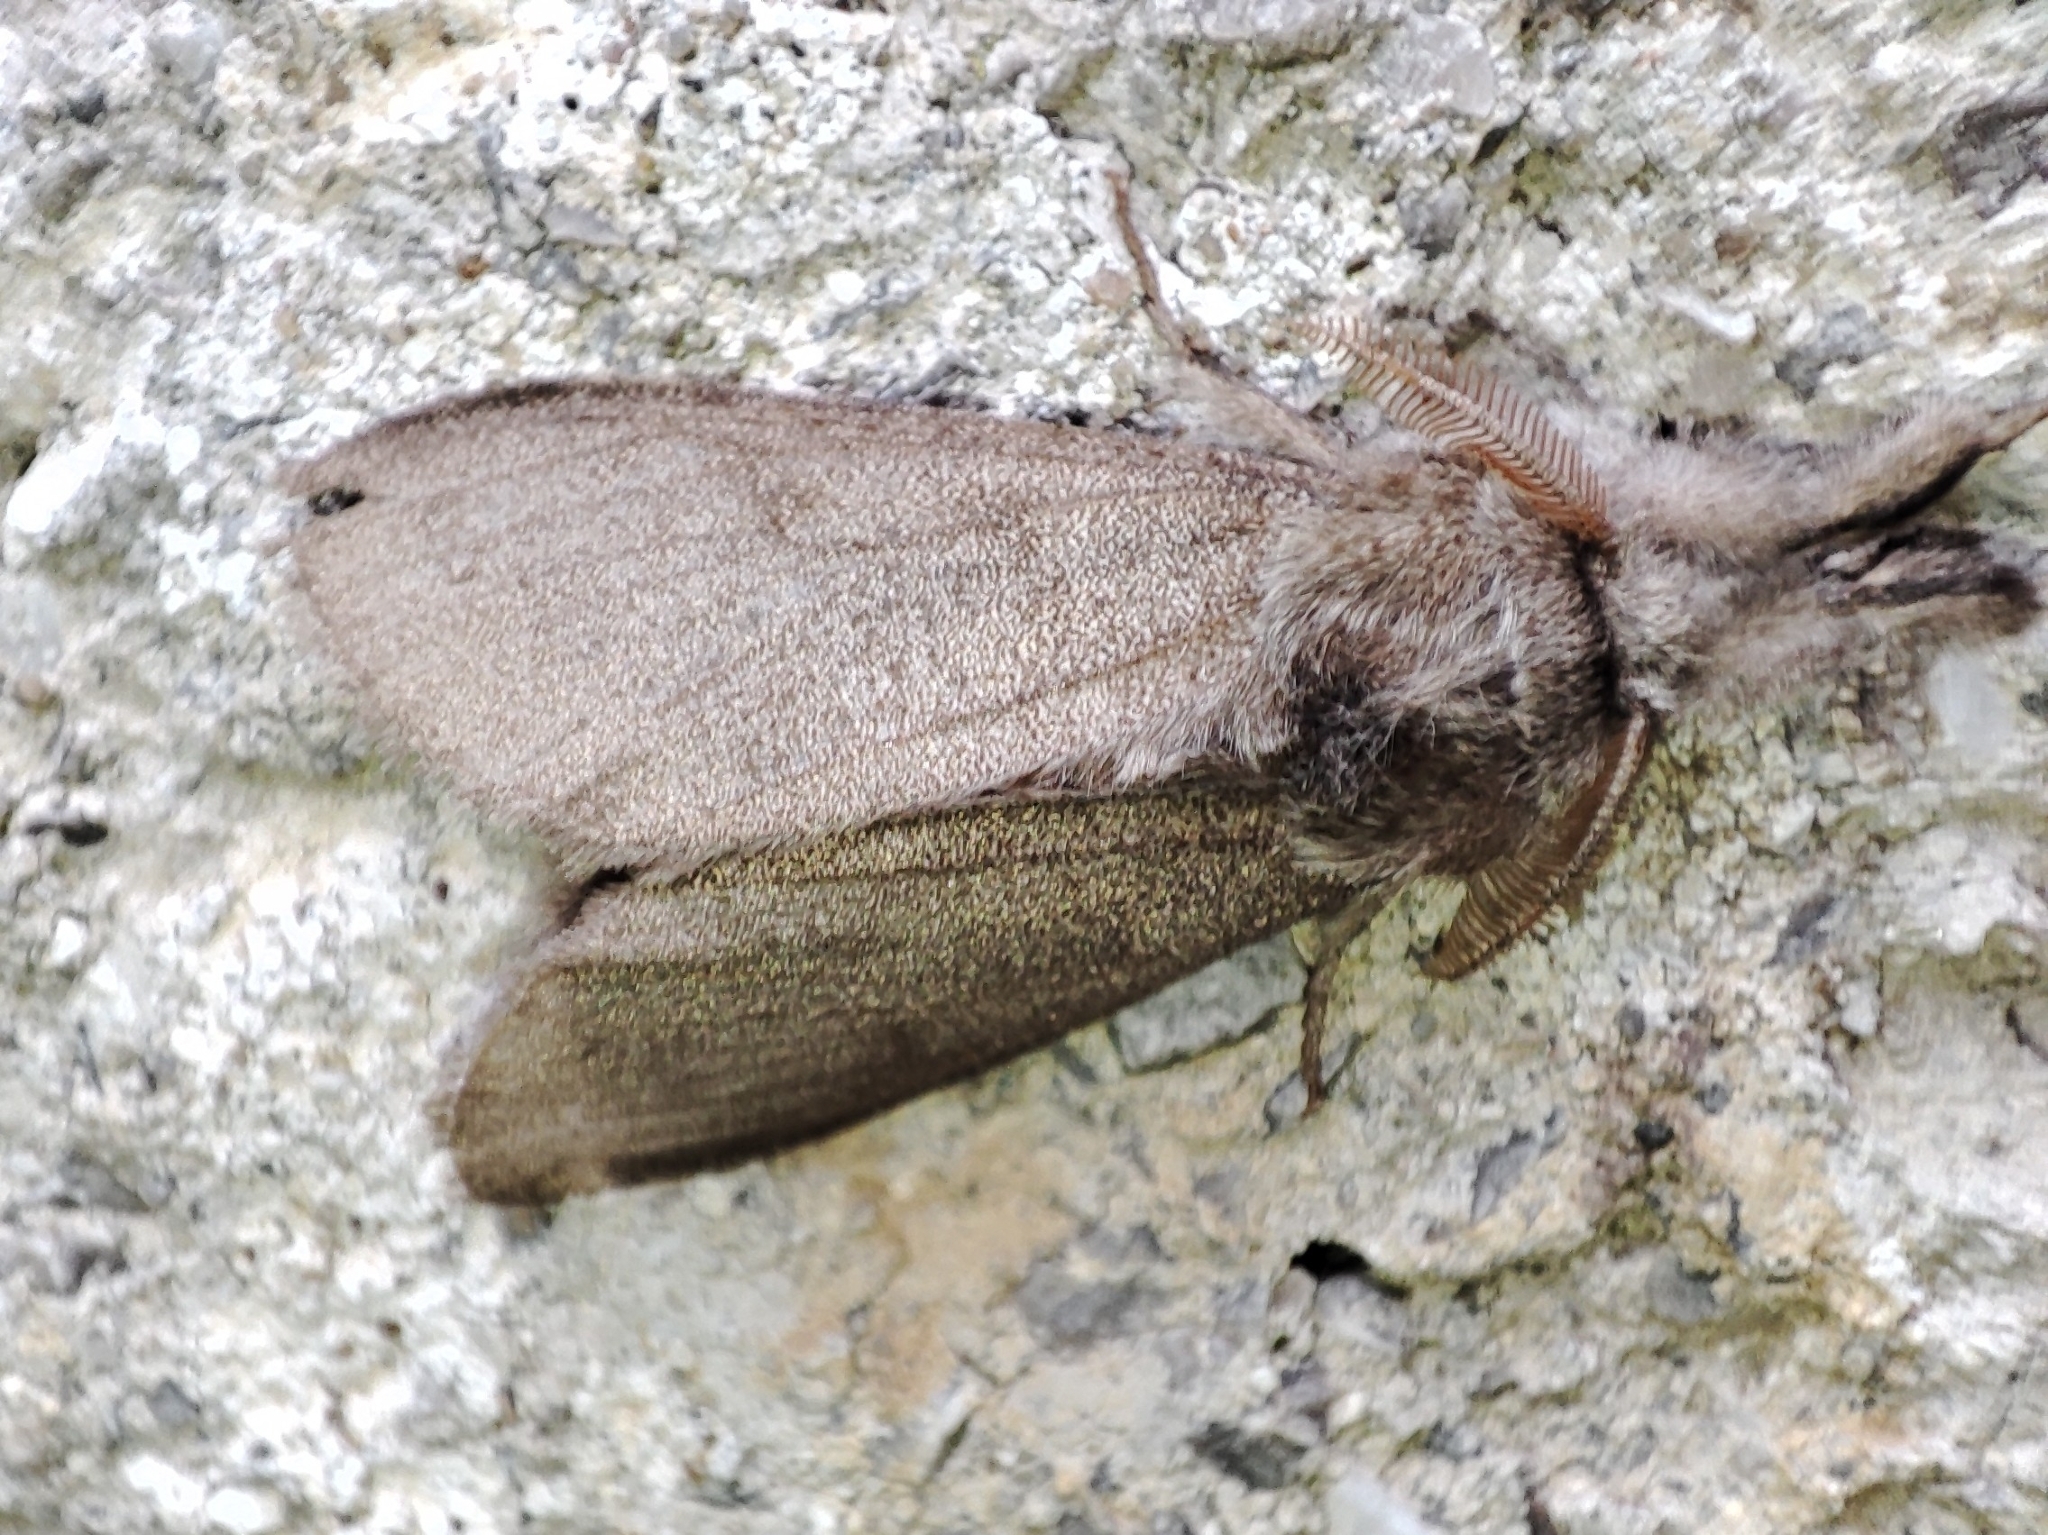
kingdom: Animalia
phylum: Arthropoda
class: Insecta
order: Lepidoptera
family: Erebidae
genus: Calliteara
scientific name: Calliteara pudibunda
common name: Pale tussock
